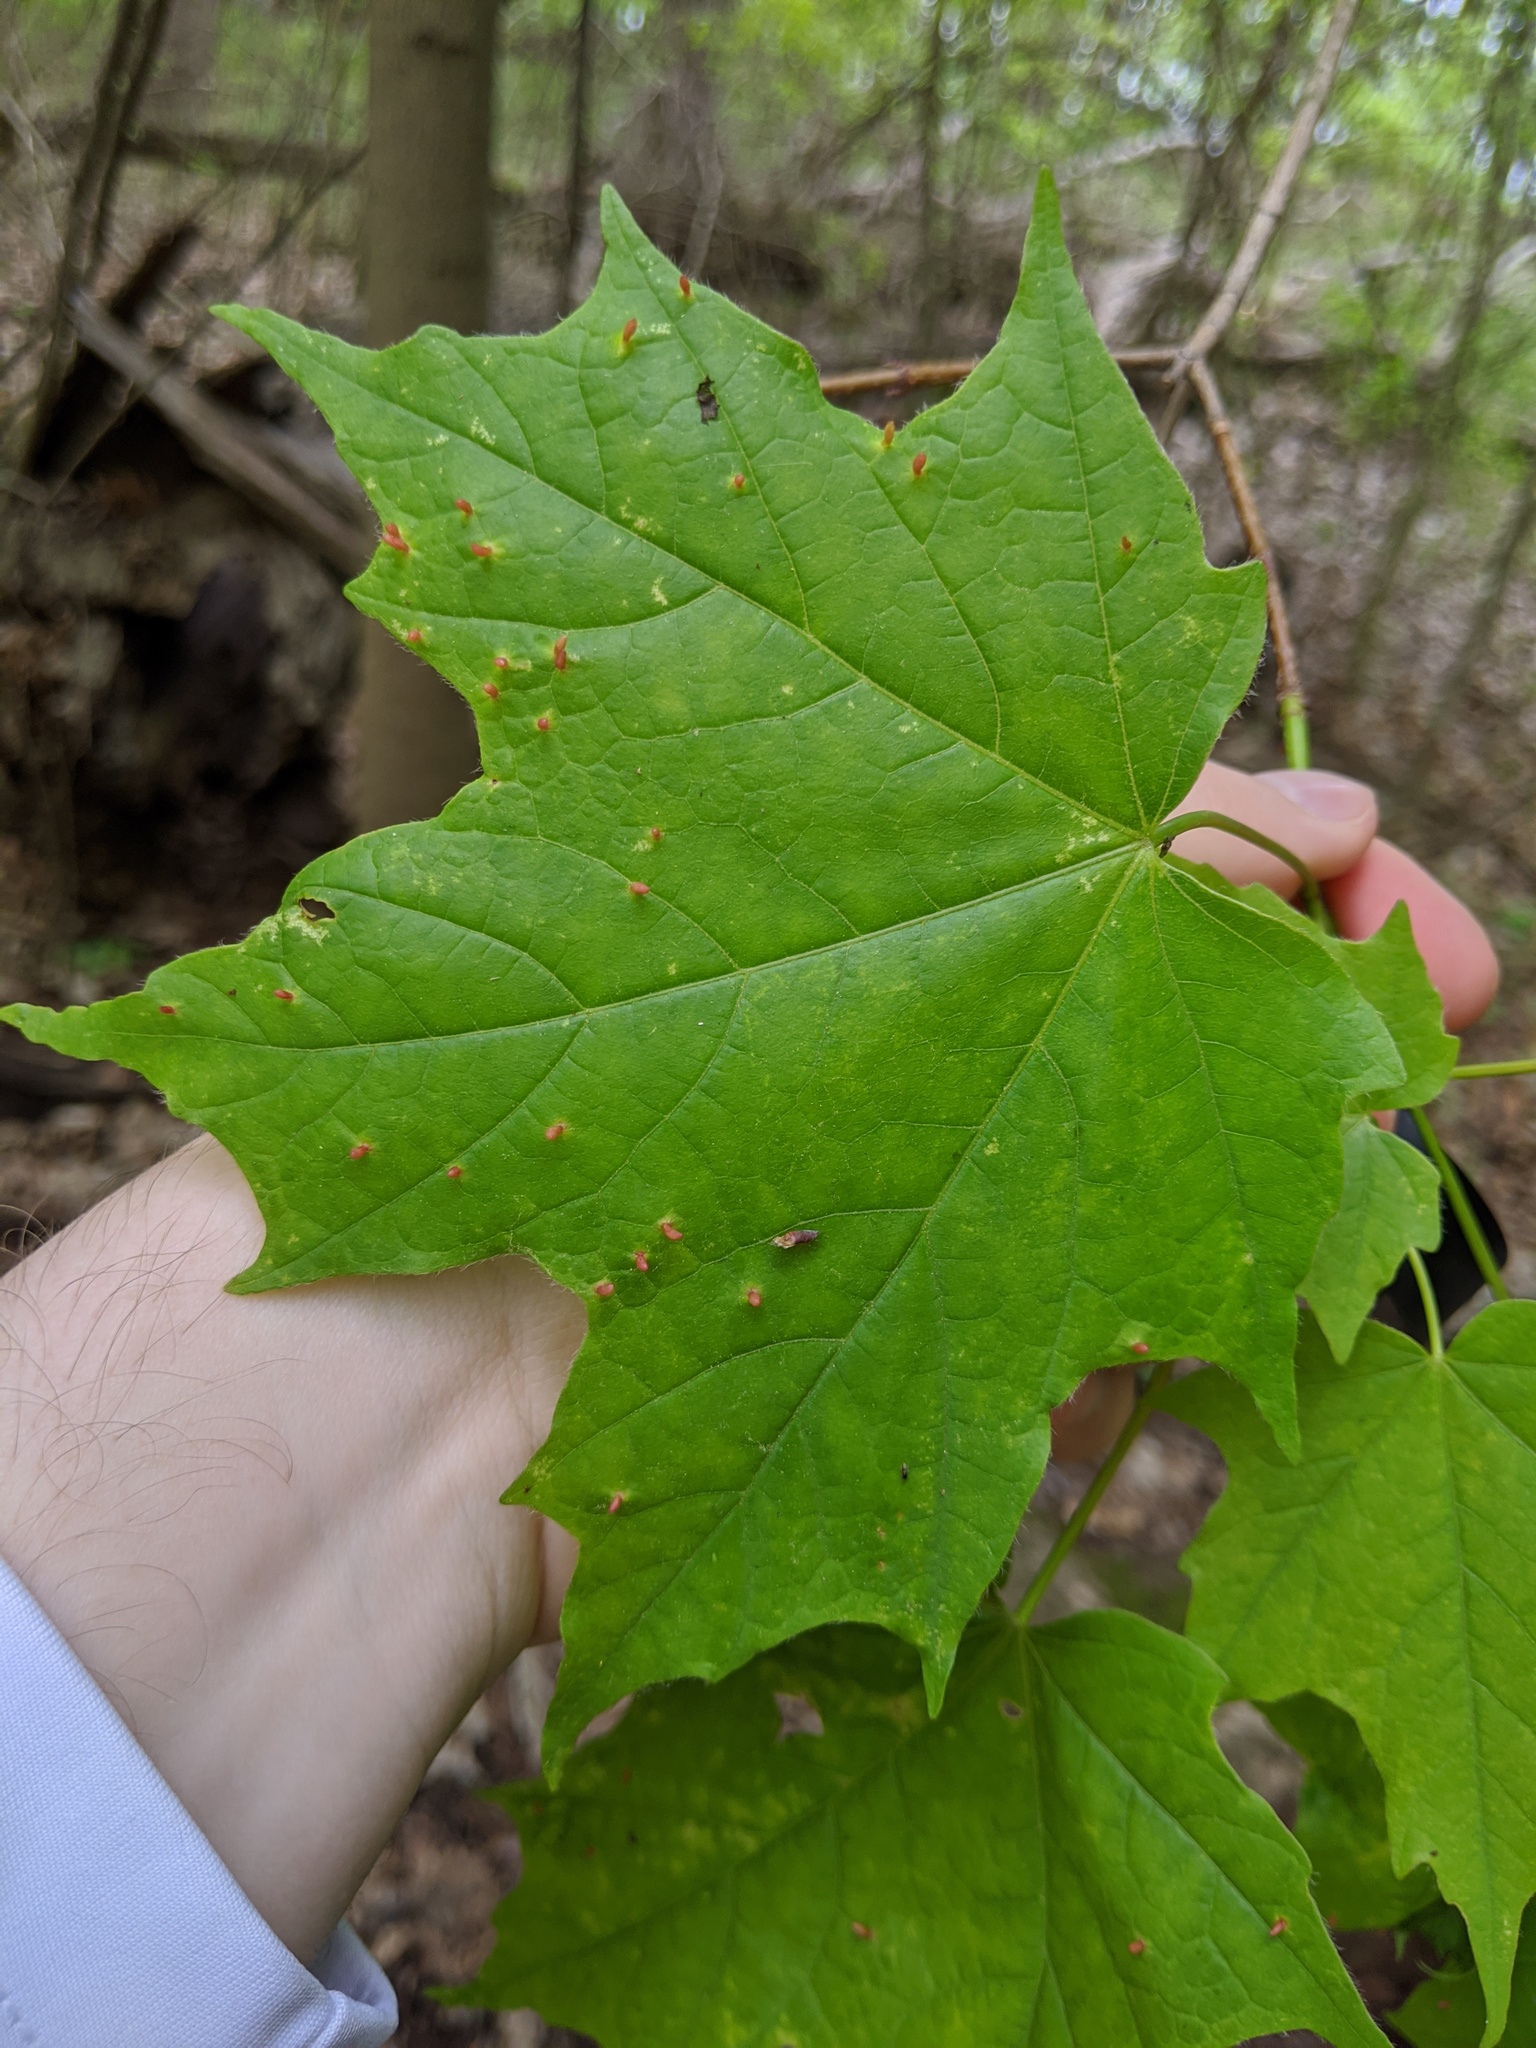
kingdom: Animalia
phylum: Arthropoda
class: Arachnida
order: Trombidiformes
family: Eriophyidae
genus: Vasates
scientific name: Vasates aceriscrumena
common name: Maple spindle gall mite
